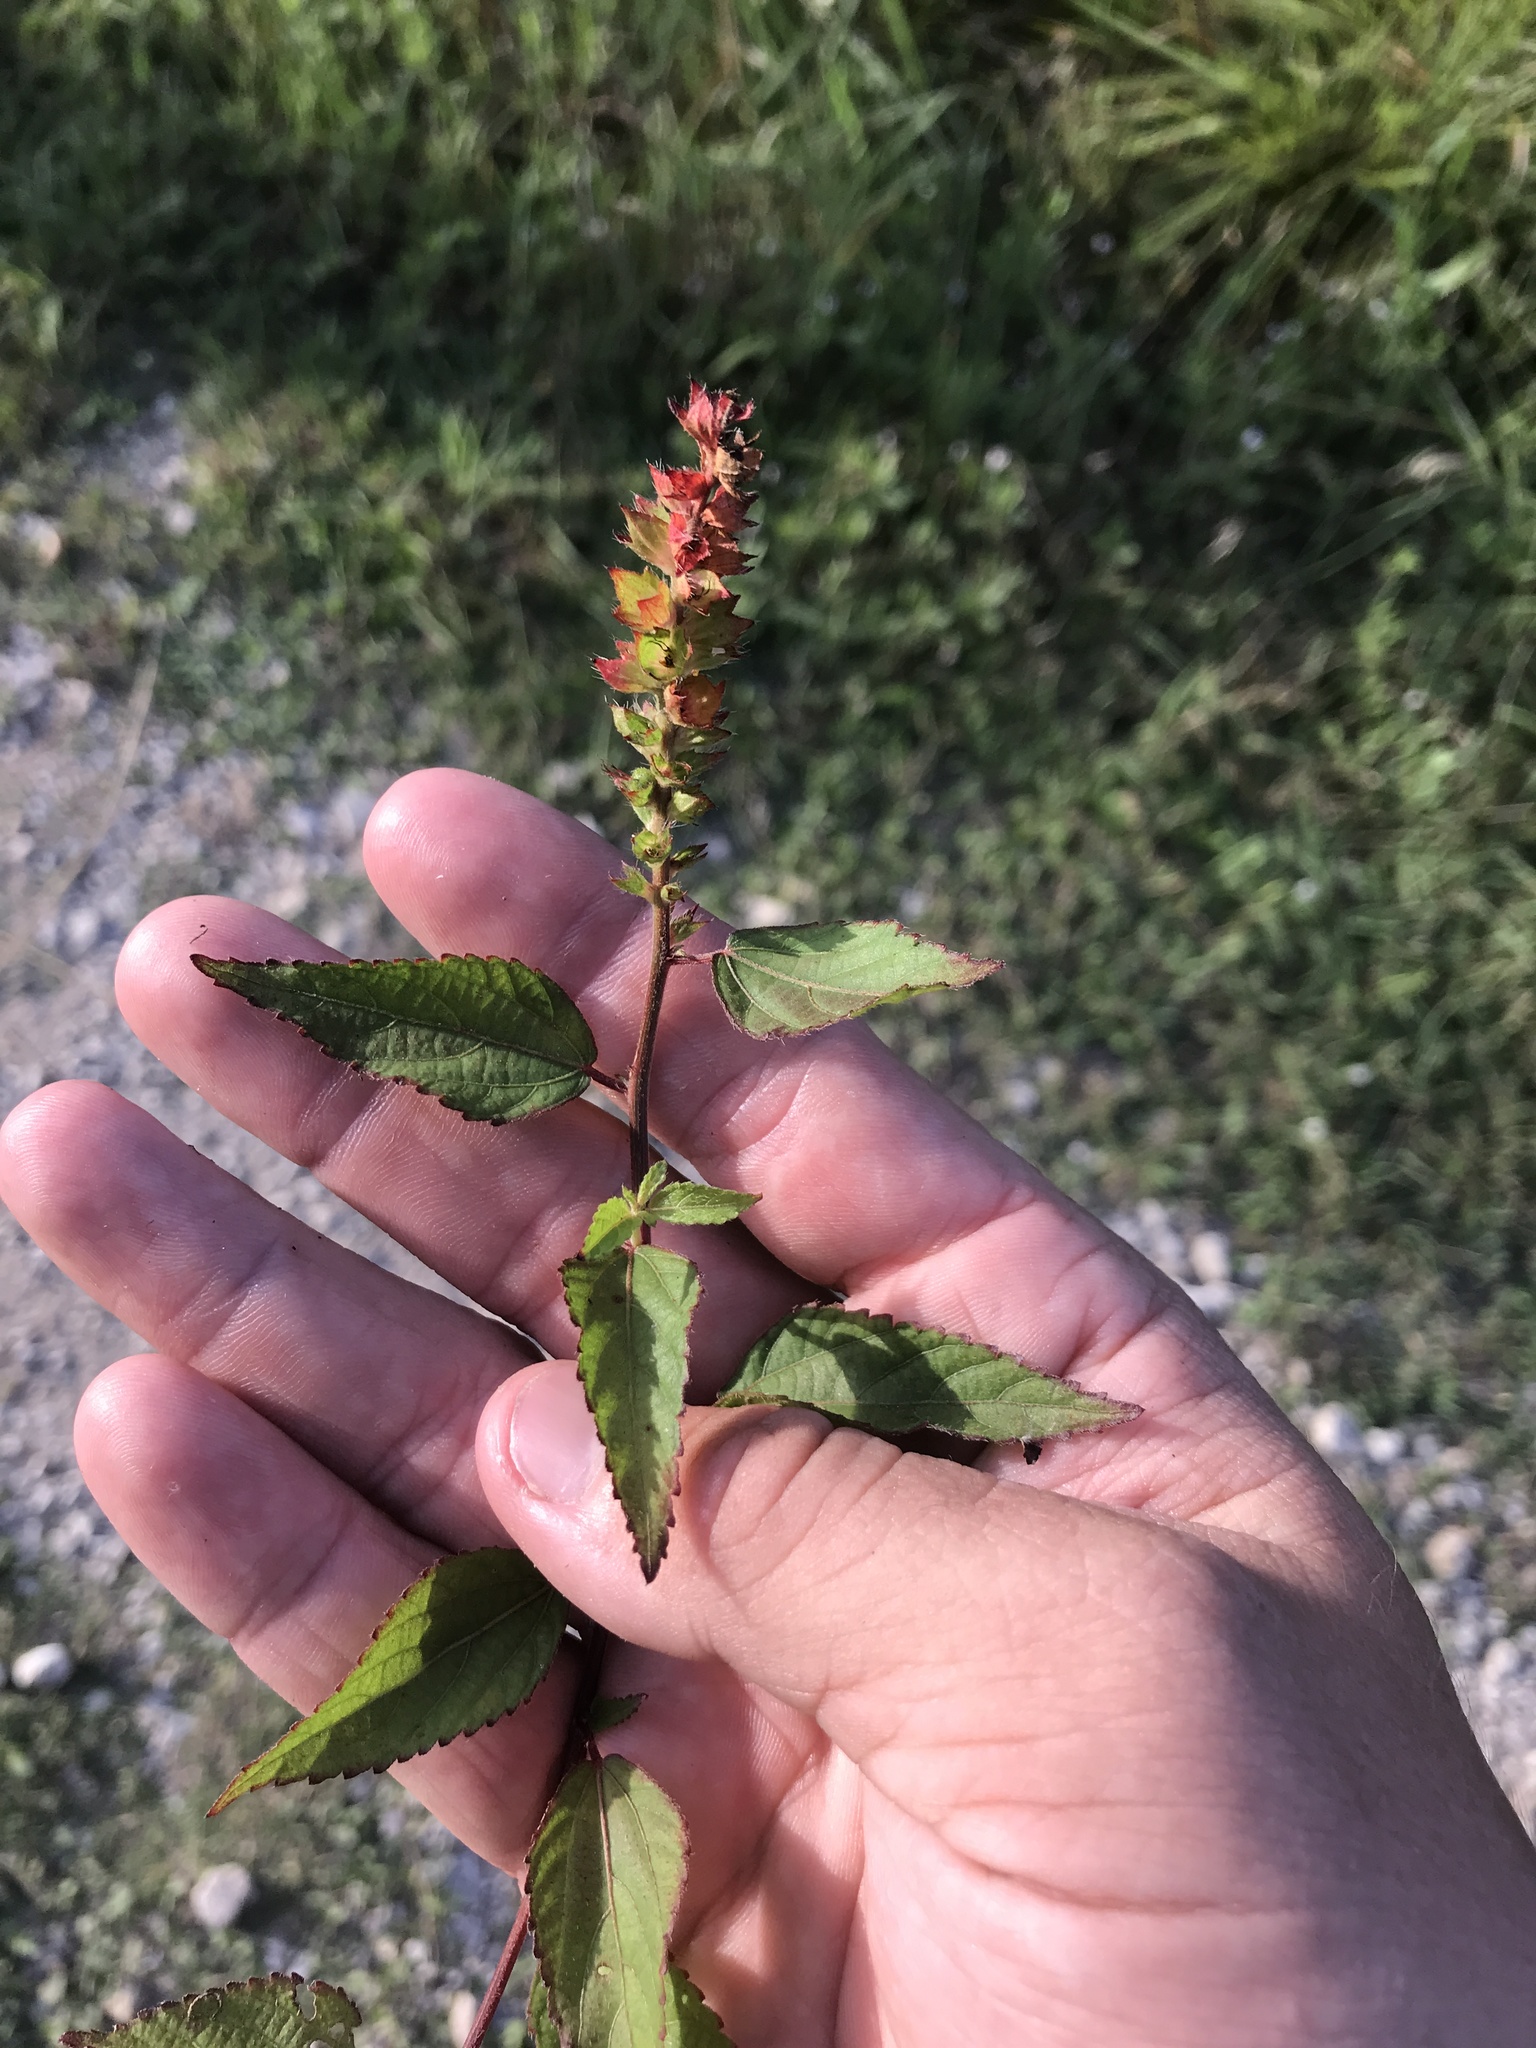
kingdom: Plantae
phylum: Tracheophyta
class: Magnoliopsida
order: Malpighiales
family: Euphorbiaceae
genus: Acalypha
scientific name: Acalypha phleoides
